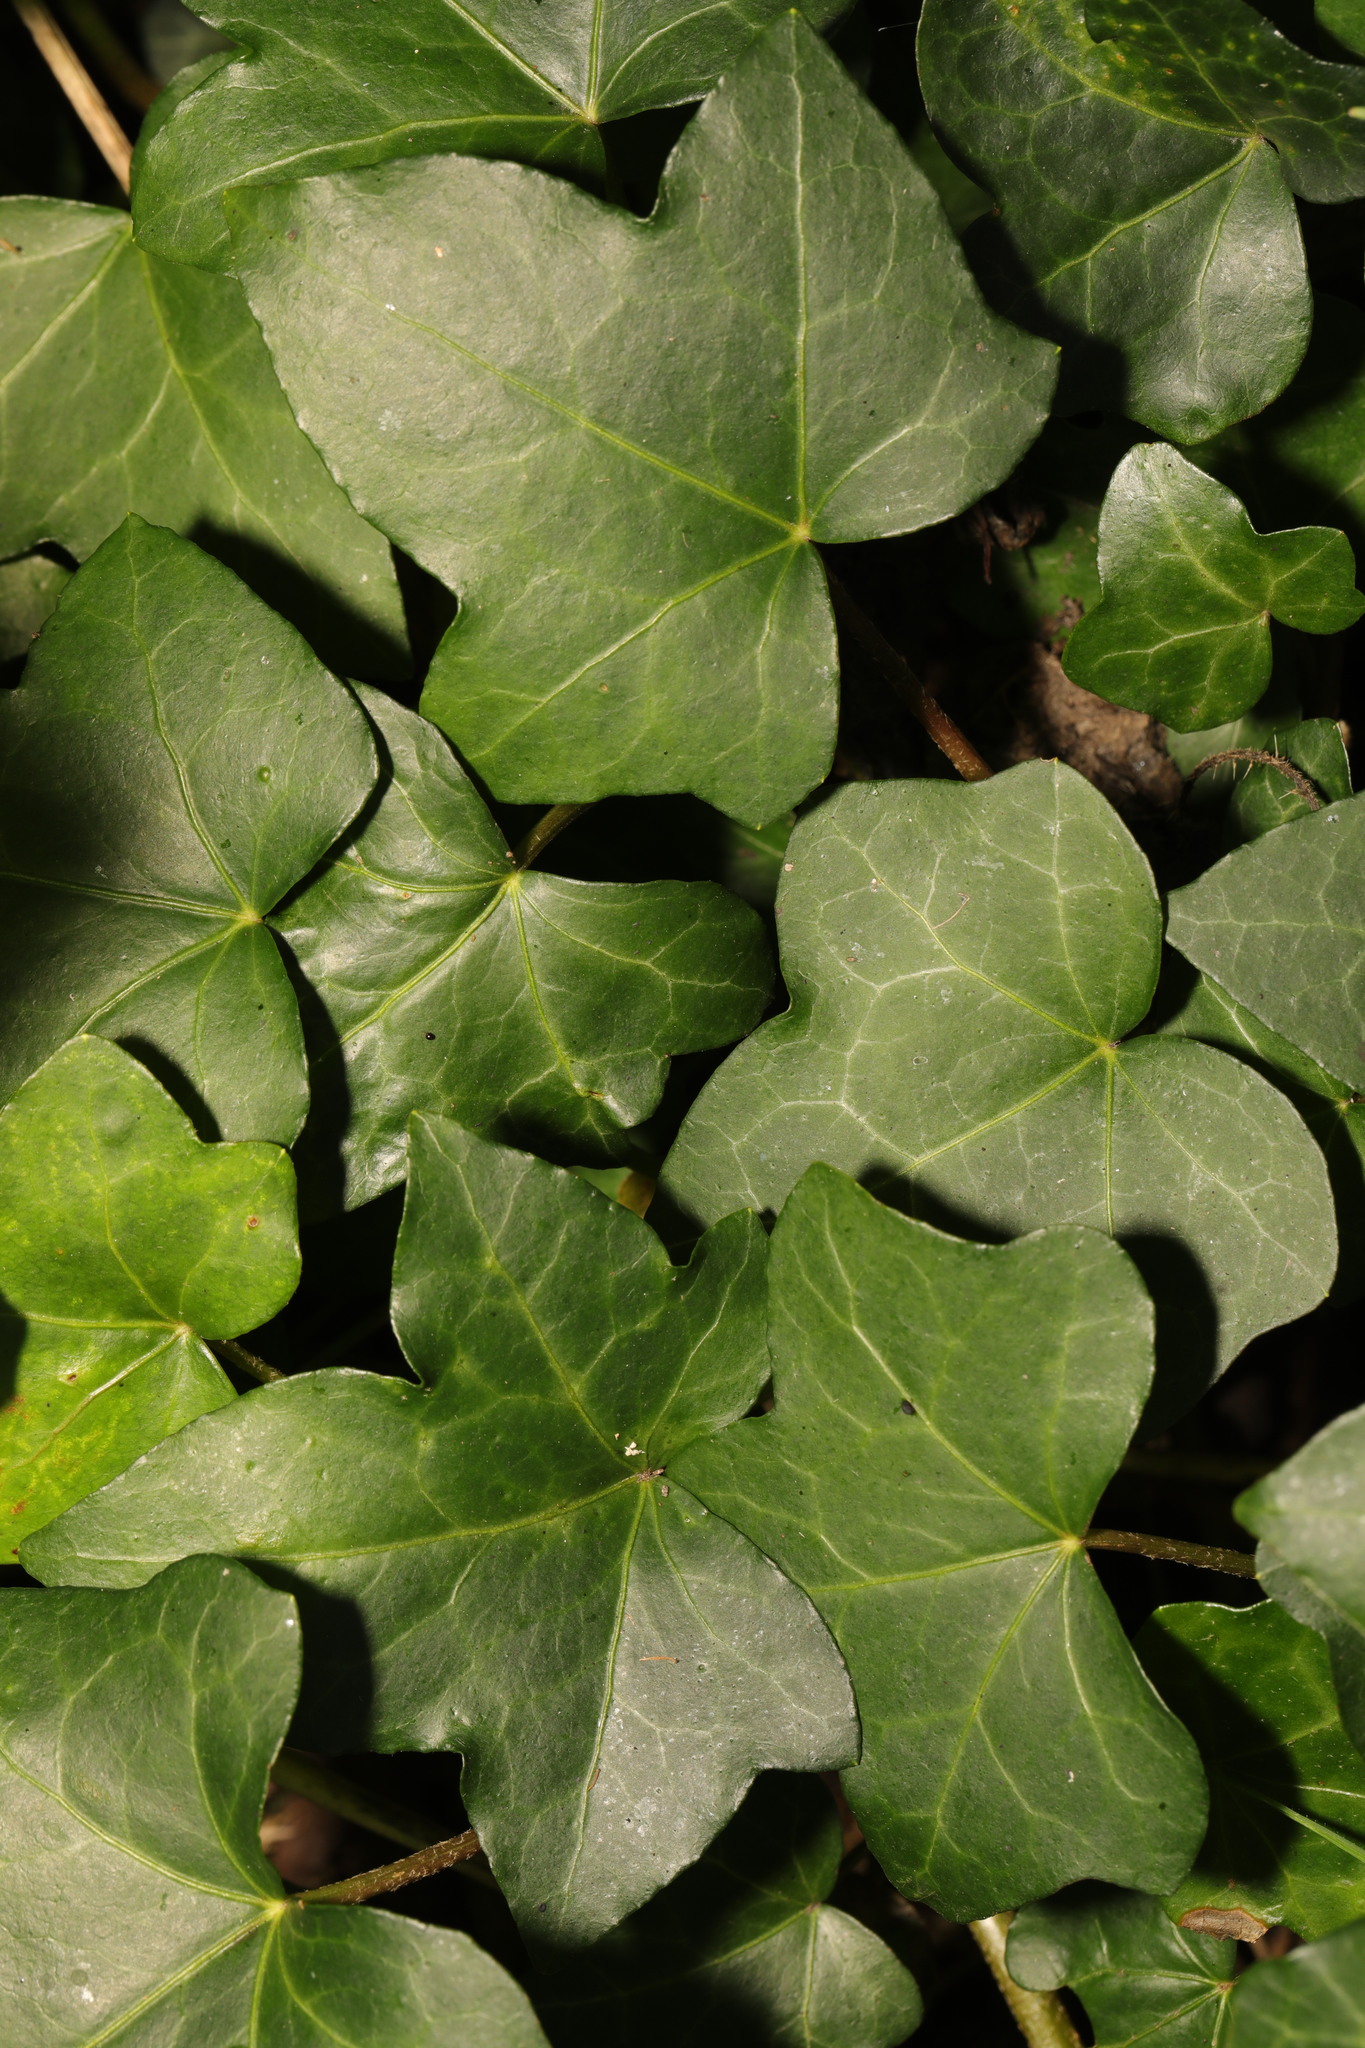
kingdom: Plantae
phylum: Tracheophyta
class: Magnoliopsida
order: Apiales
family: Araliaceae
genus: Hedera
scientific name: Hedera helix
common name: Ivy
